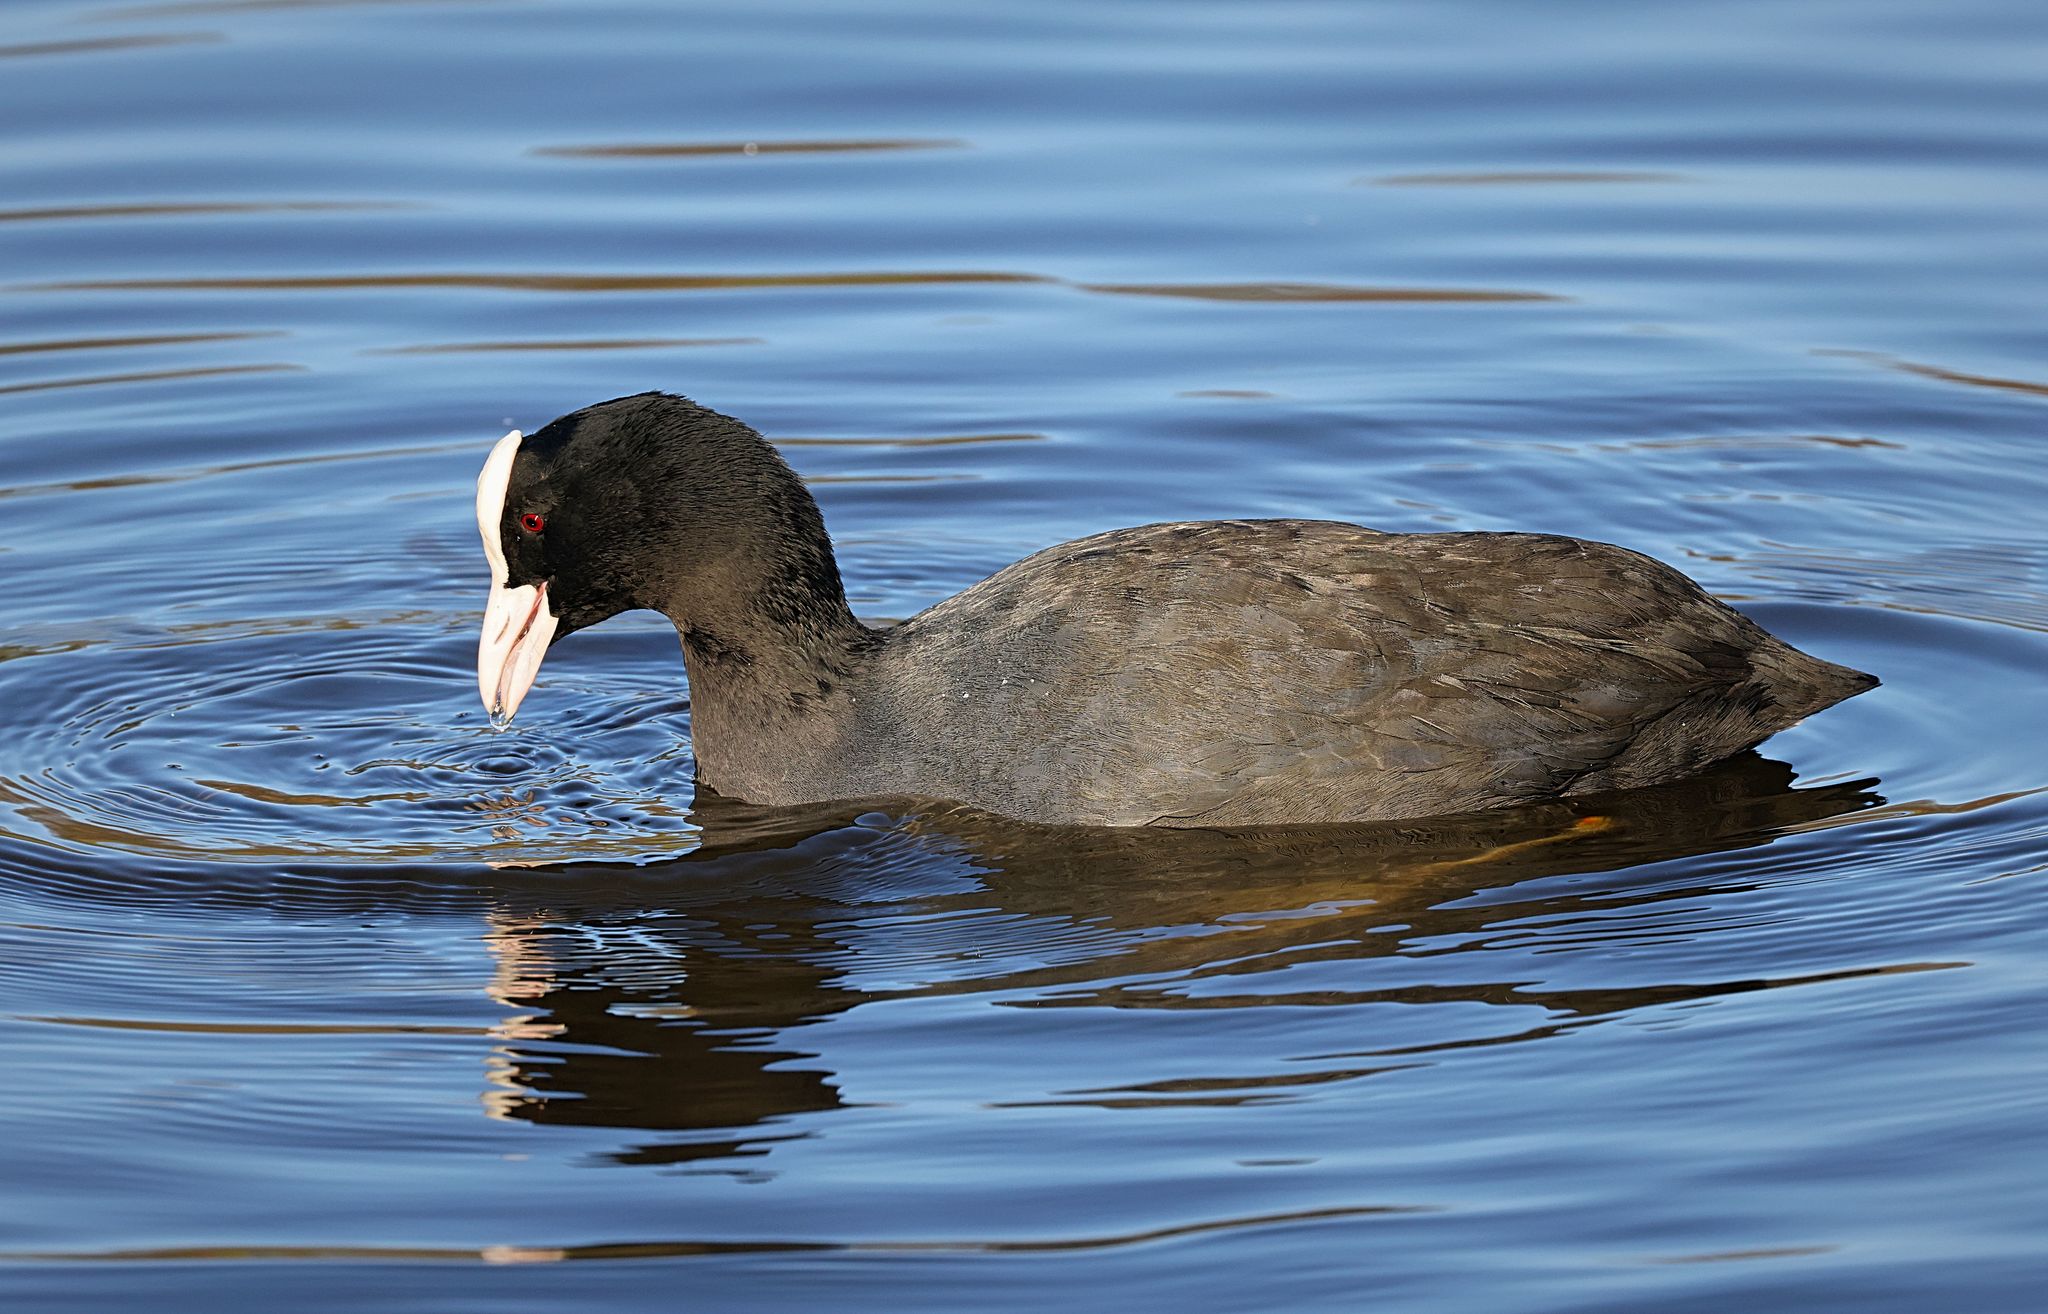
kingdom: Animalia
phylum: Chordata
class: Aves
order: Gruiformes
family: Rallidae
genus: Fulica
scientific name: Fulica atra
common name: Eurasian coot
